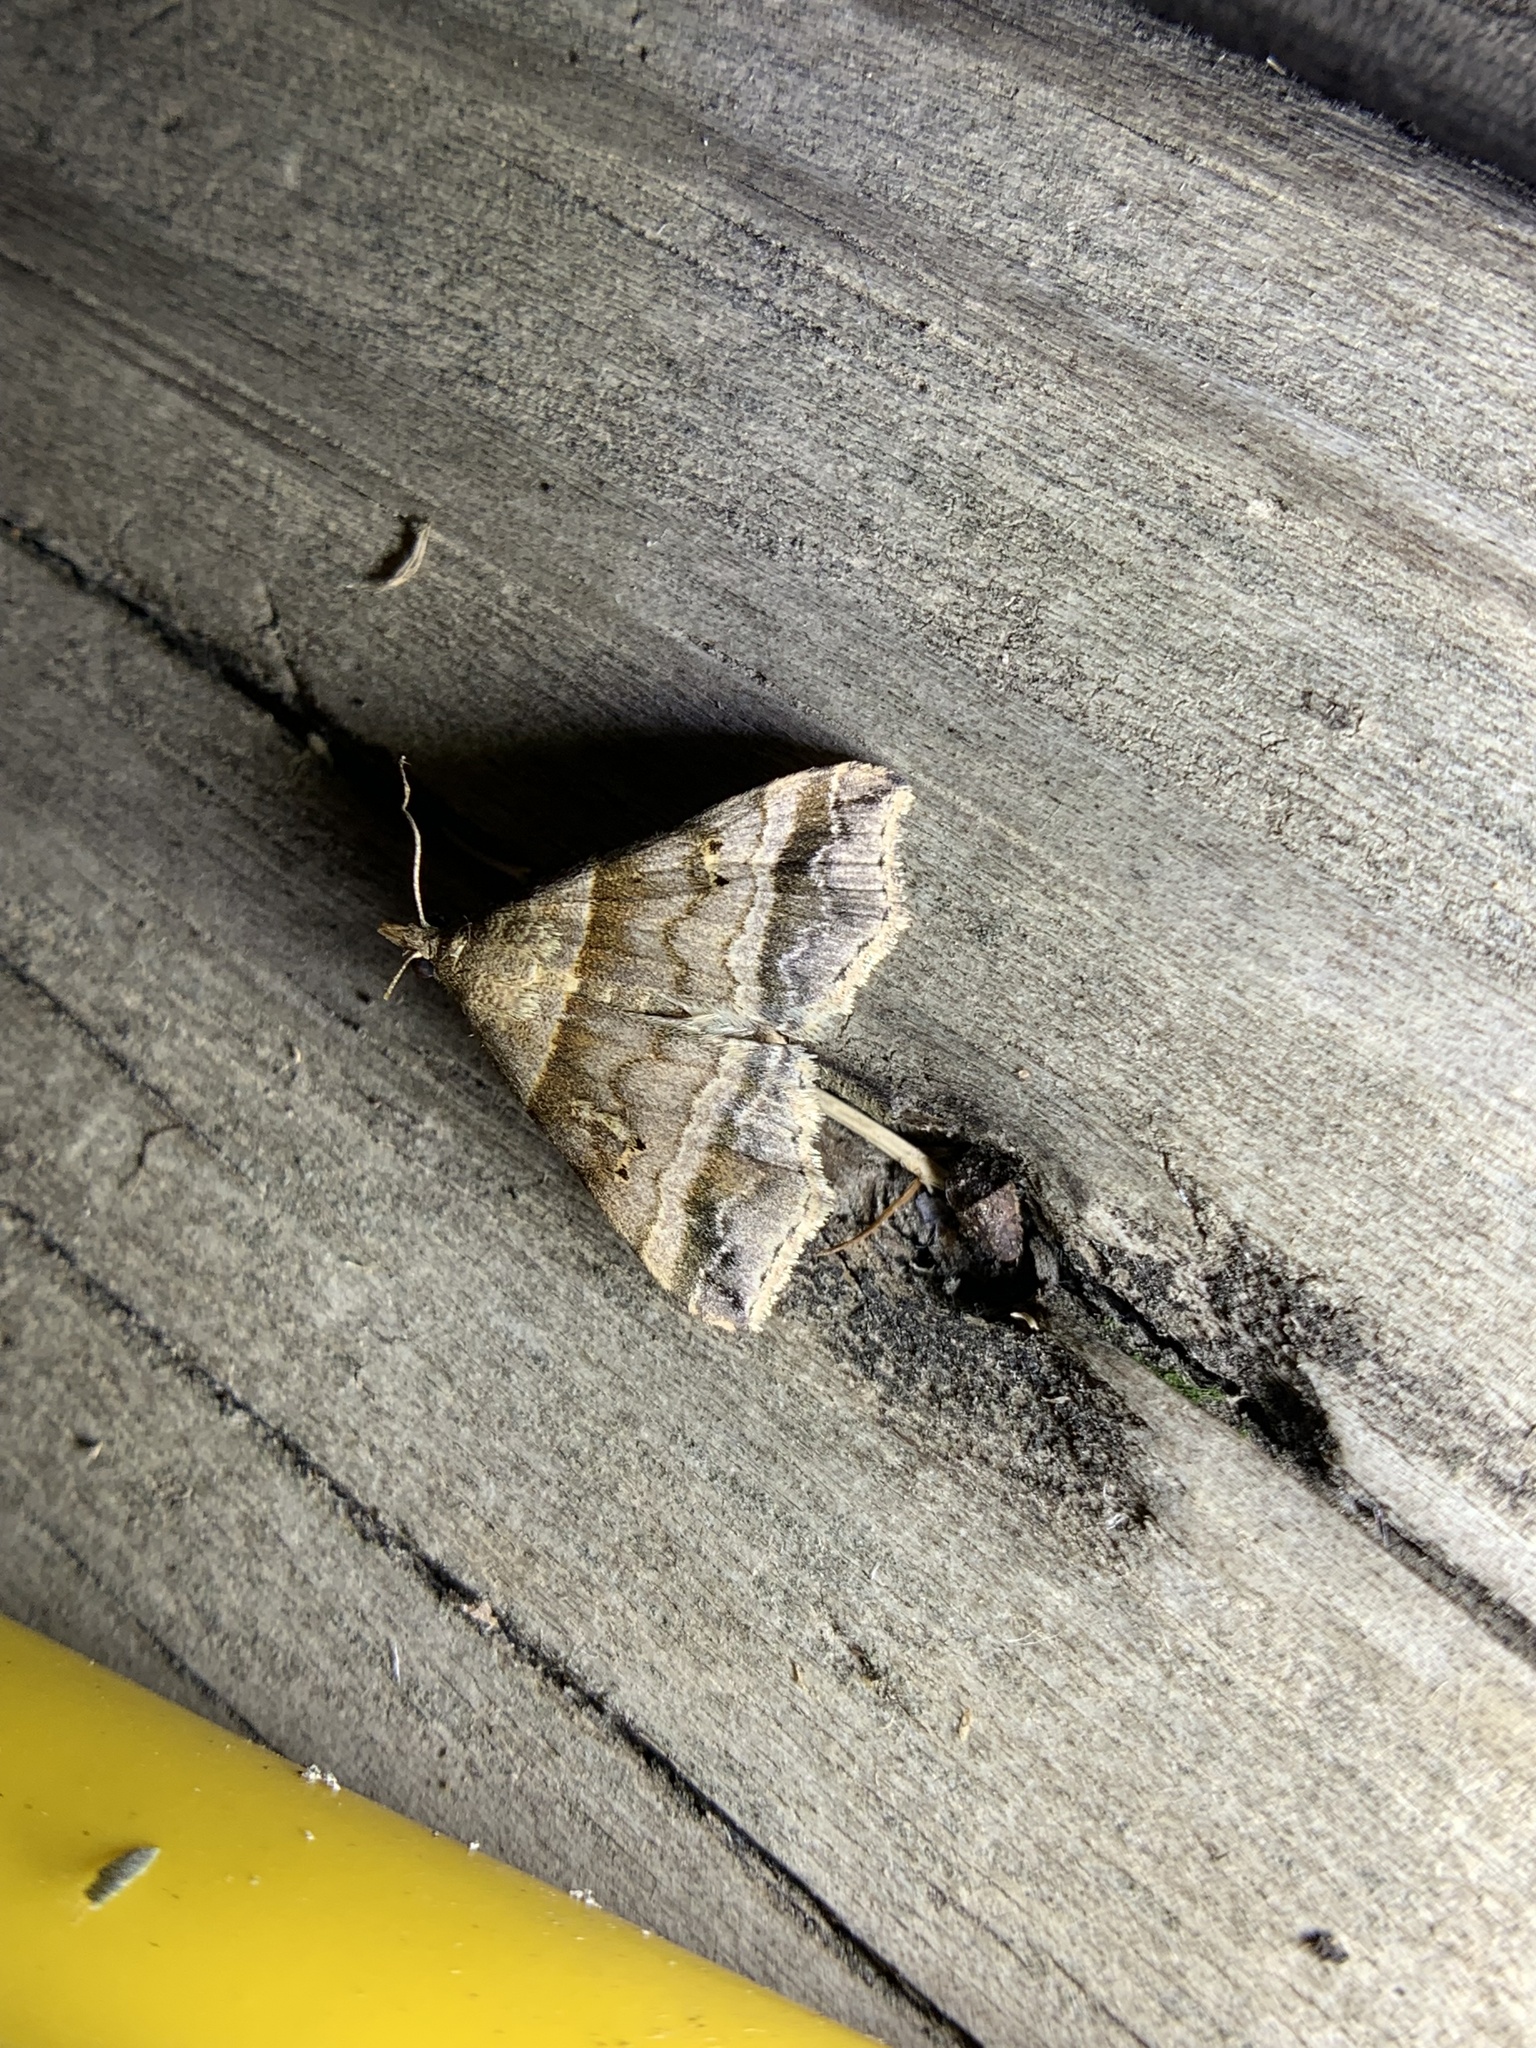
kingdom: Animalia
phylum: Arthropoda
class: Insecta
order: Lepidoptera
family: Erebidae
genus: Phaeolita
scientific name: Phaeolita pyramusalis
